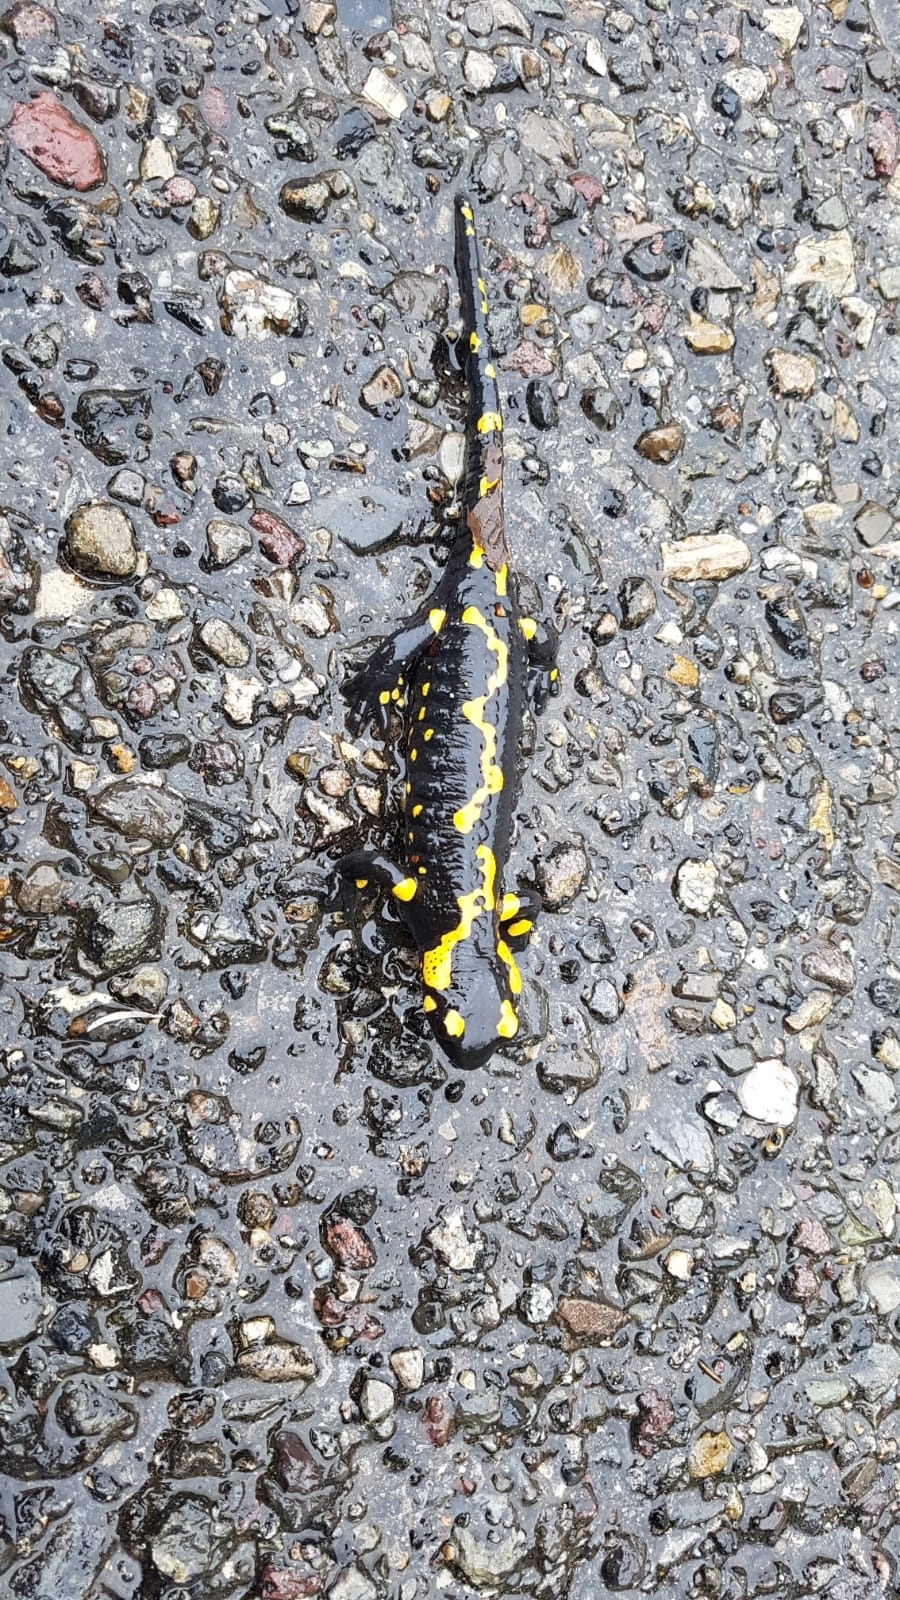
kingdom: Animalia
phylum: Chordata
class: Amphibia
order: Caudata
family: Salamandridae
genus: Salamandra
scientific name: Salamandra salamandra
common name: Fire salamander
